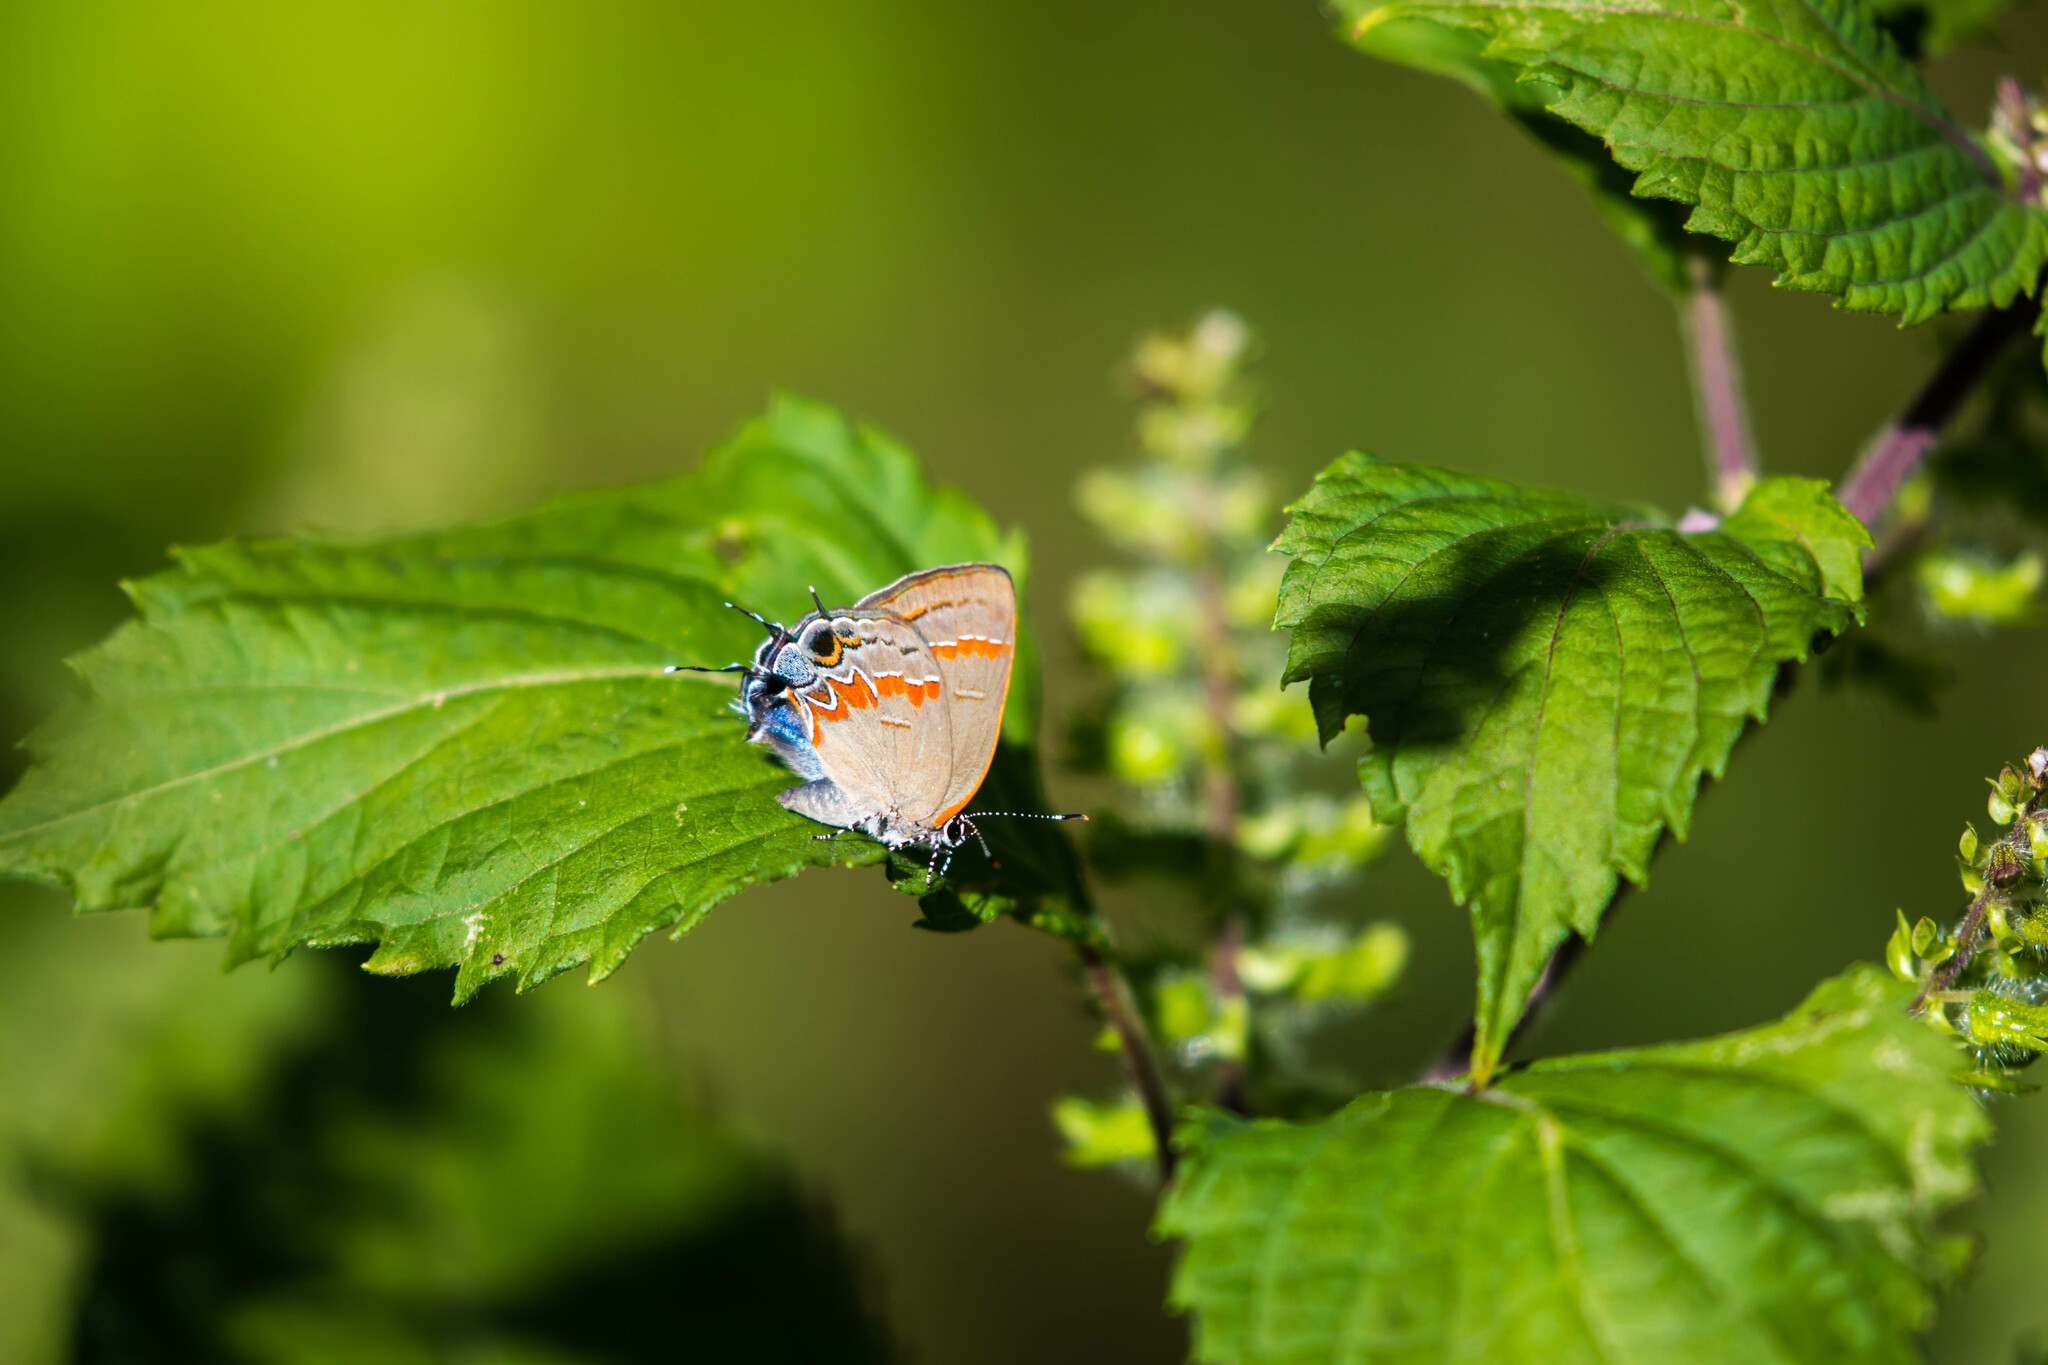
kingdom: Animalia
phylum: Arthropoda
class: Insecta
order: Lepidoptera
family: Lycaenidae
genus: Calycopis
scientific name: Calycopis cecrops
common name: Red-banded hairstreak
